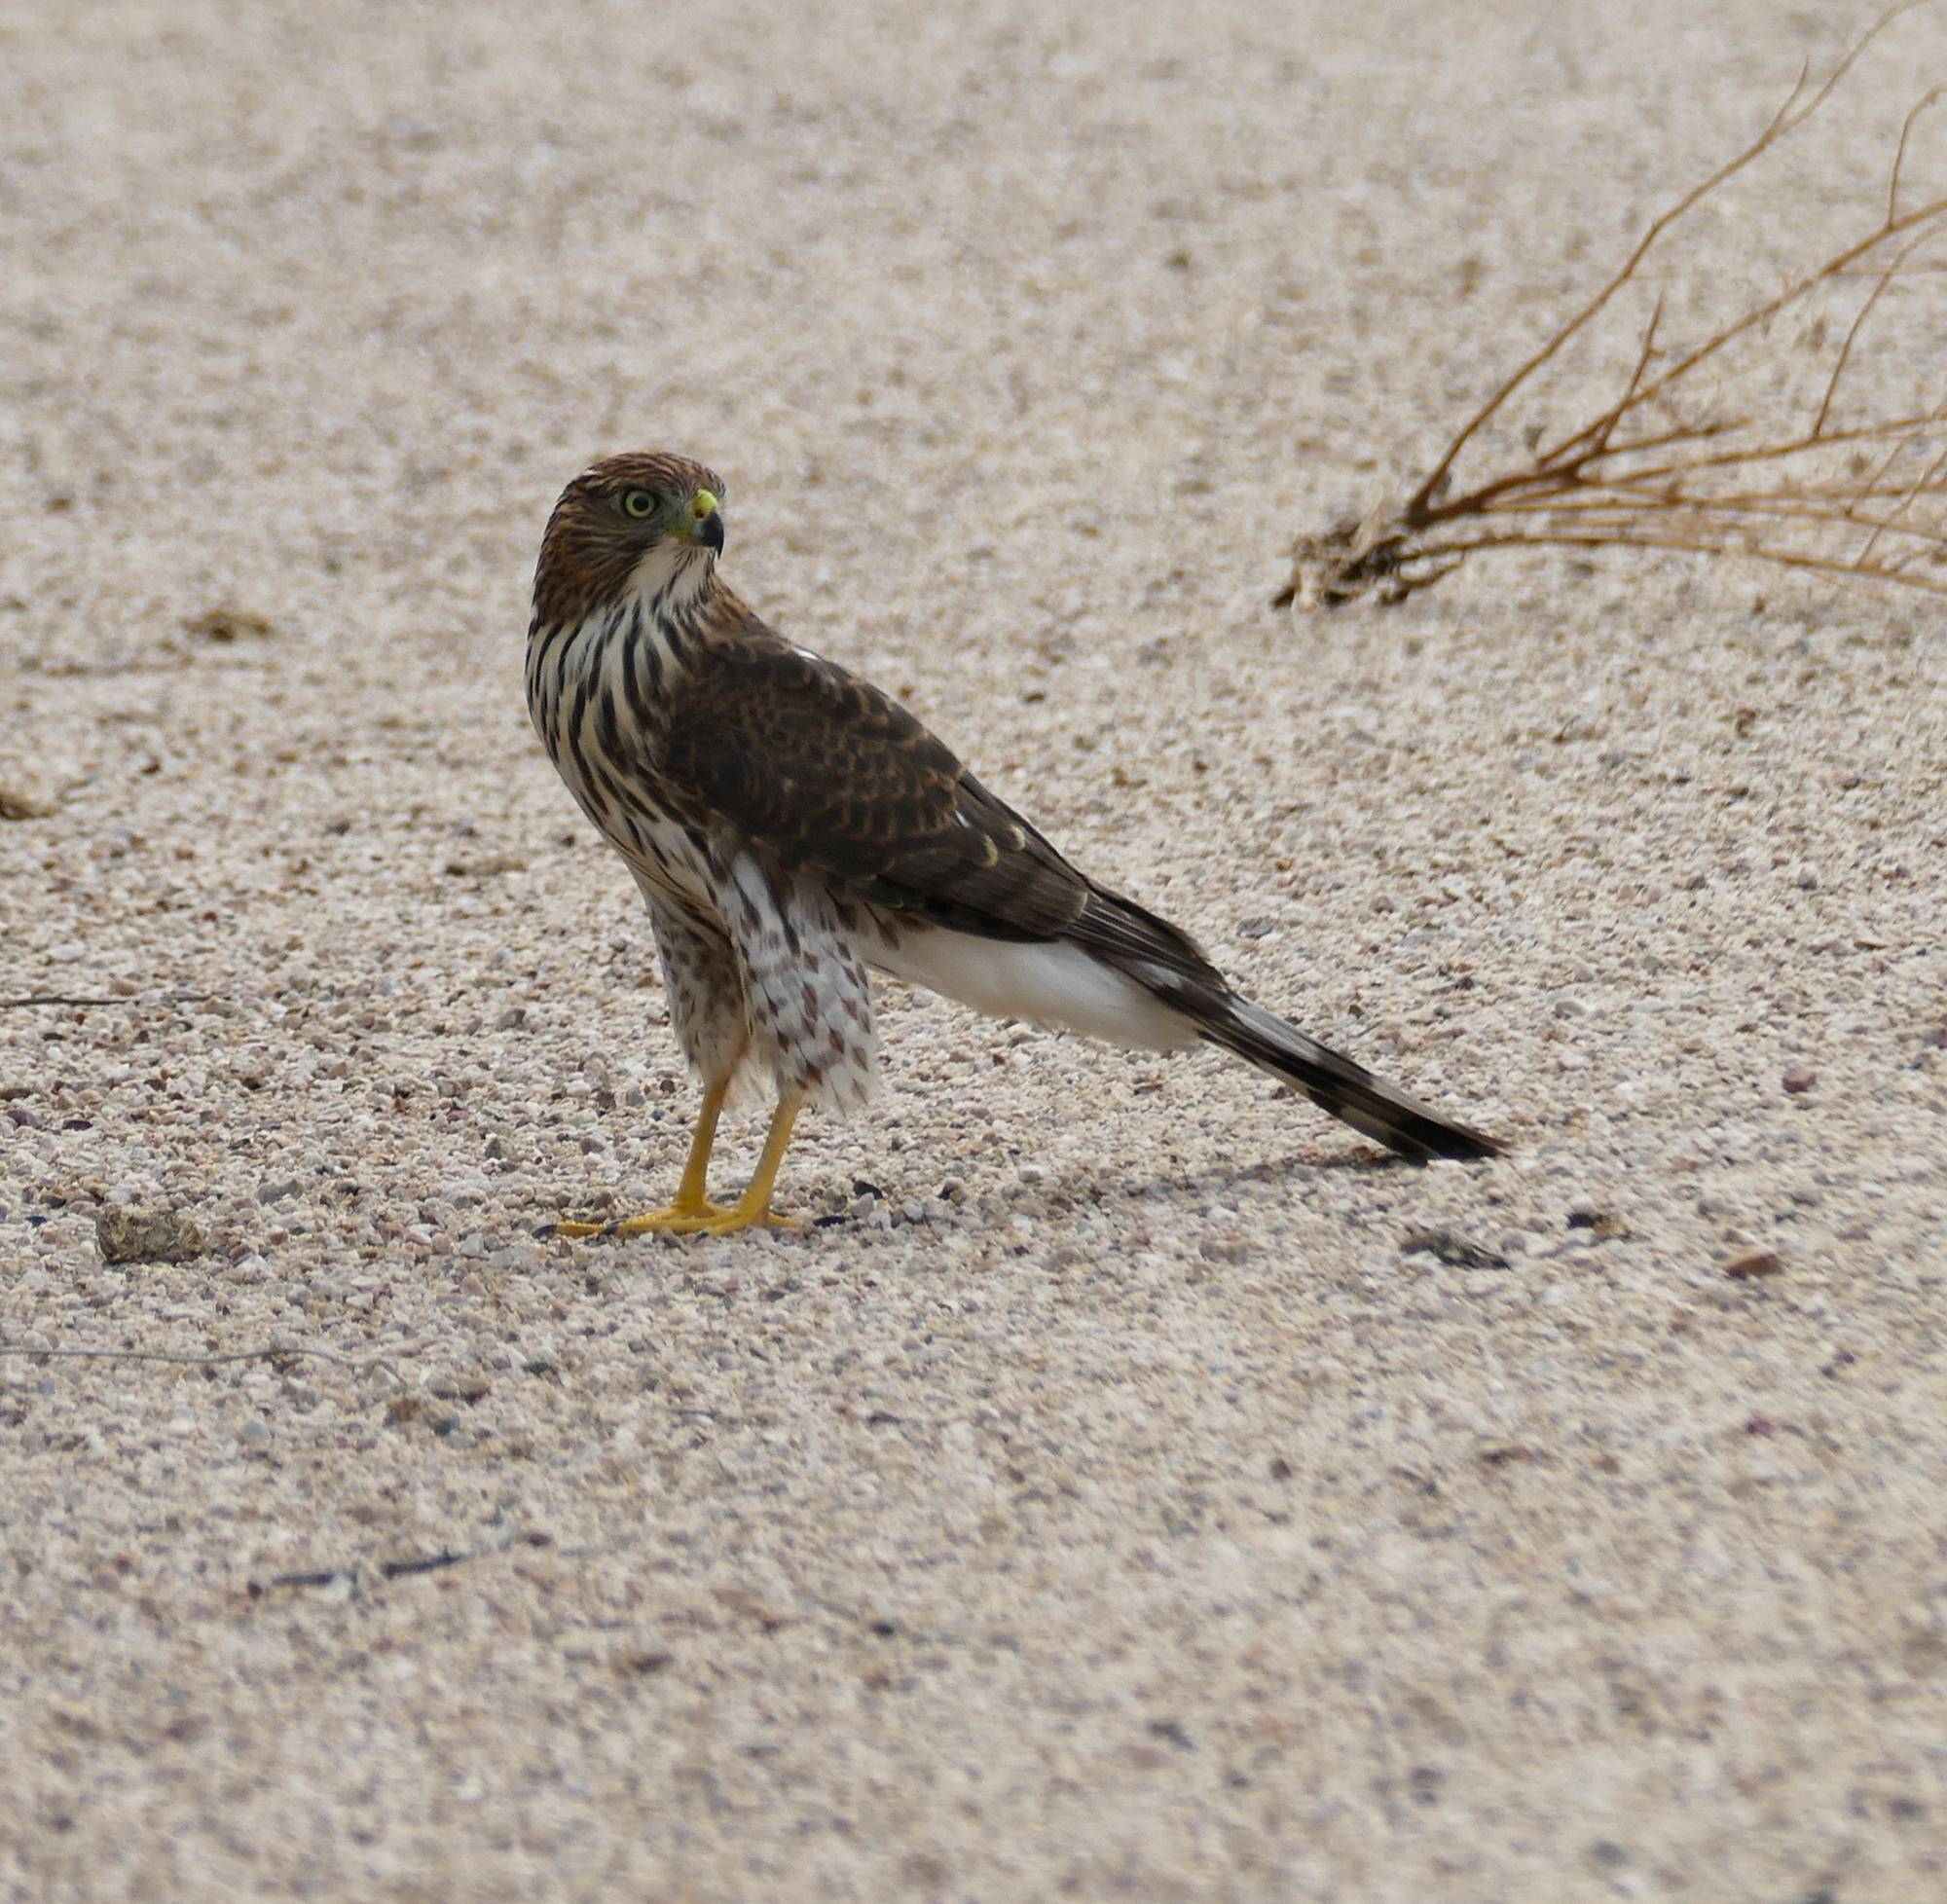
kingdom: Animalia
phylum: Chordata
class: Aves
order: Accipitriformes
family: Accipitridae
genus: Accipiter
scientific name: Accipiter cooperii
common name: Cooper's hawk
